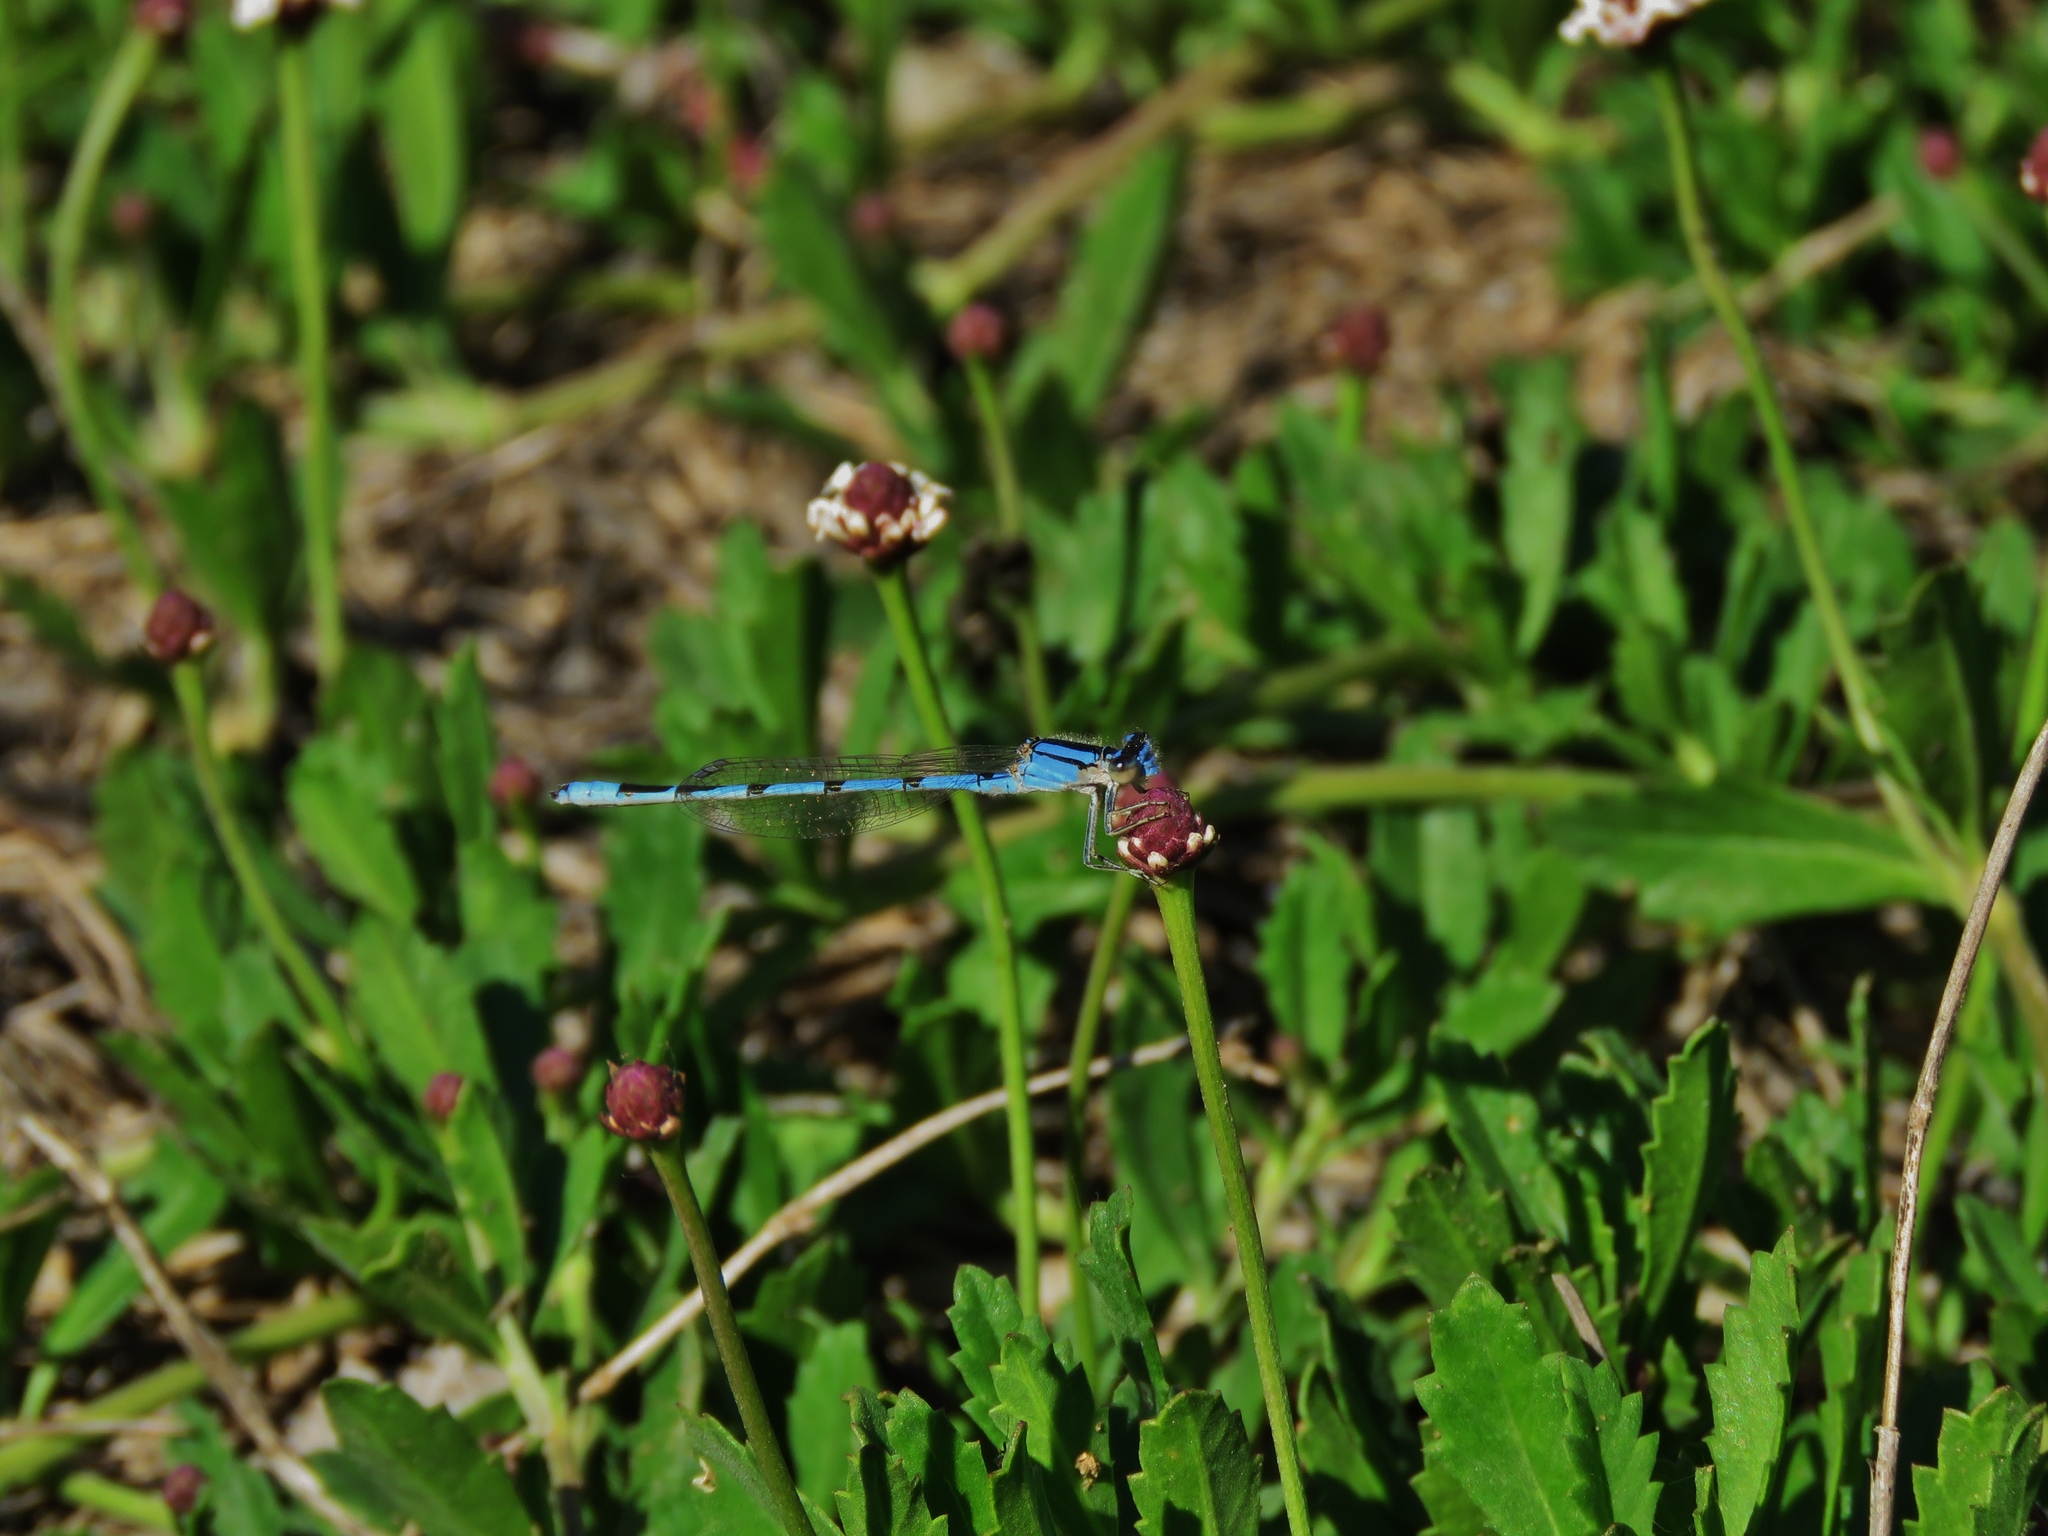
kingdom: Plantae
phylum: Tracheophyta
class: Magnoliopsida
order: Lamiales
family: Verbenaceae
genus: Phyla
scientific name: Phyla nodiflora
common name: Frogfruit
